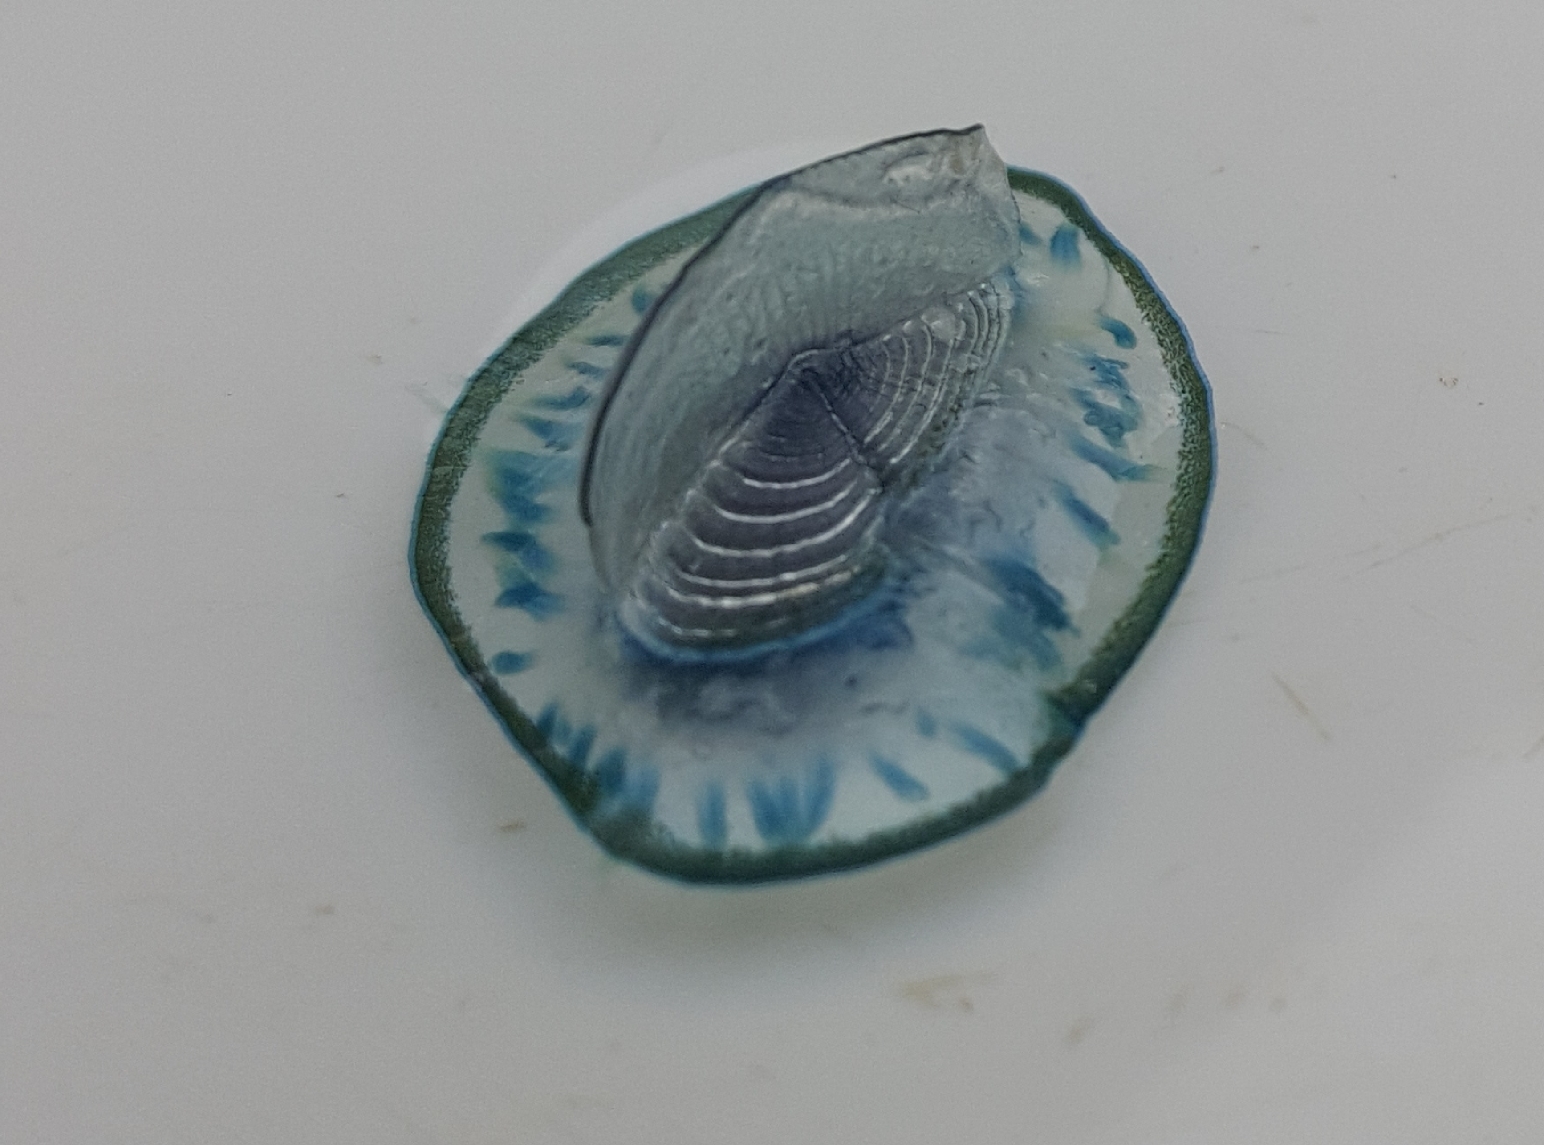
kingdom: Animalia
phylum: Cnidaria
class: Hydrozoa
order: Anthoathecata
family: Porpitidae
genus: Velella
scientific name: Velella velella
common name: By-the-wind-sailor
